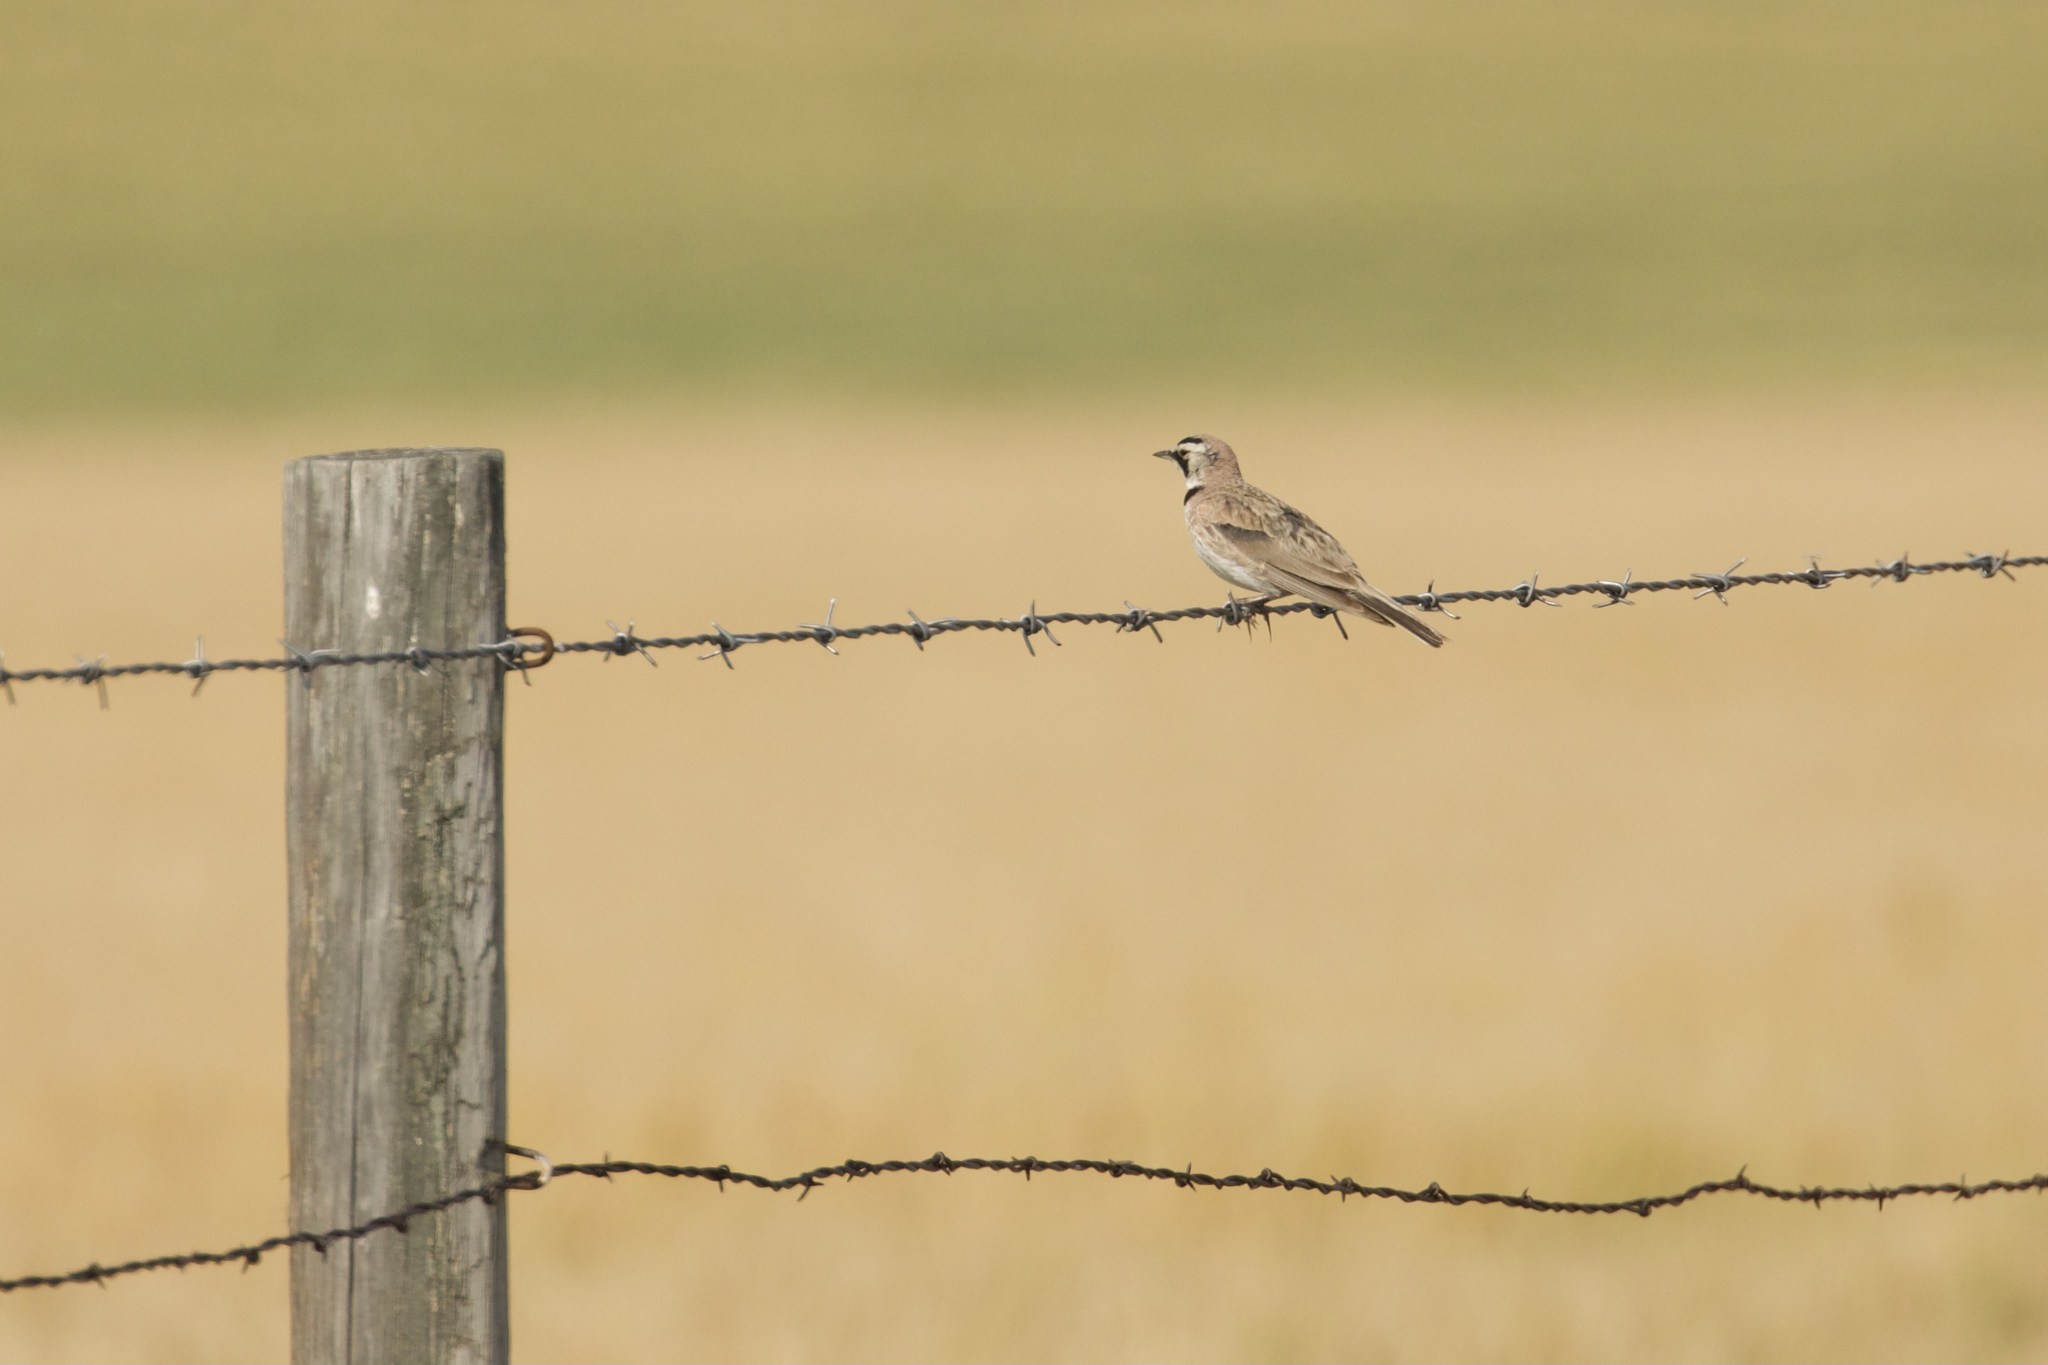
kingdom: Animalia
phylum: Chordata
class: Aves
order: Passeriformes
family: Alaudidae
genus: Eremophila
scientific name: Eremophila alpestris
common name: Horned lark
